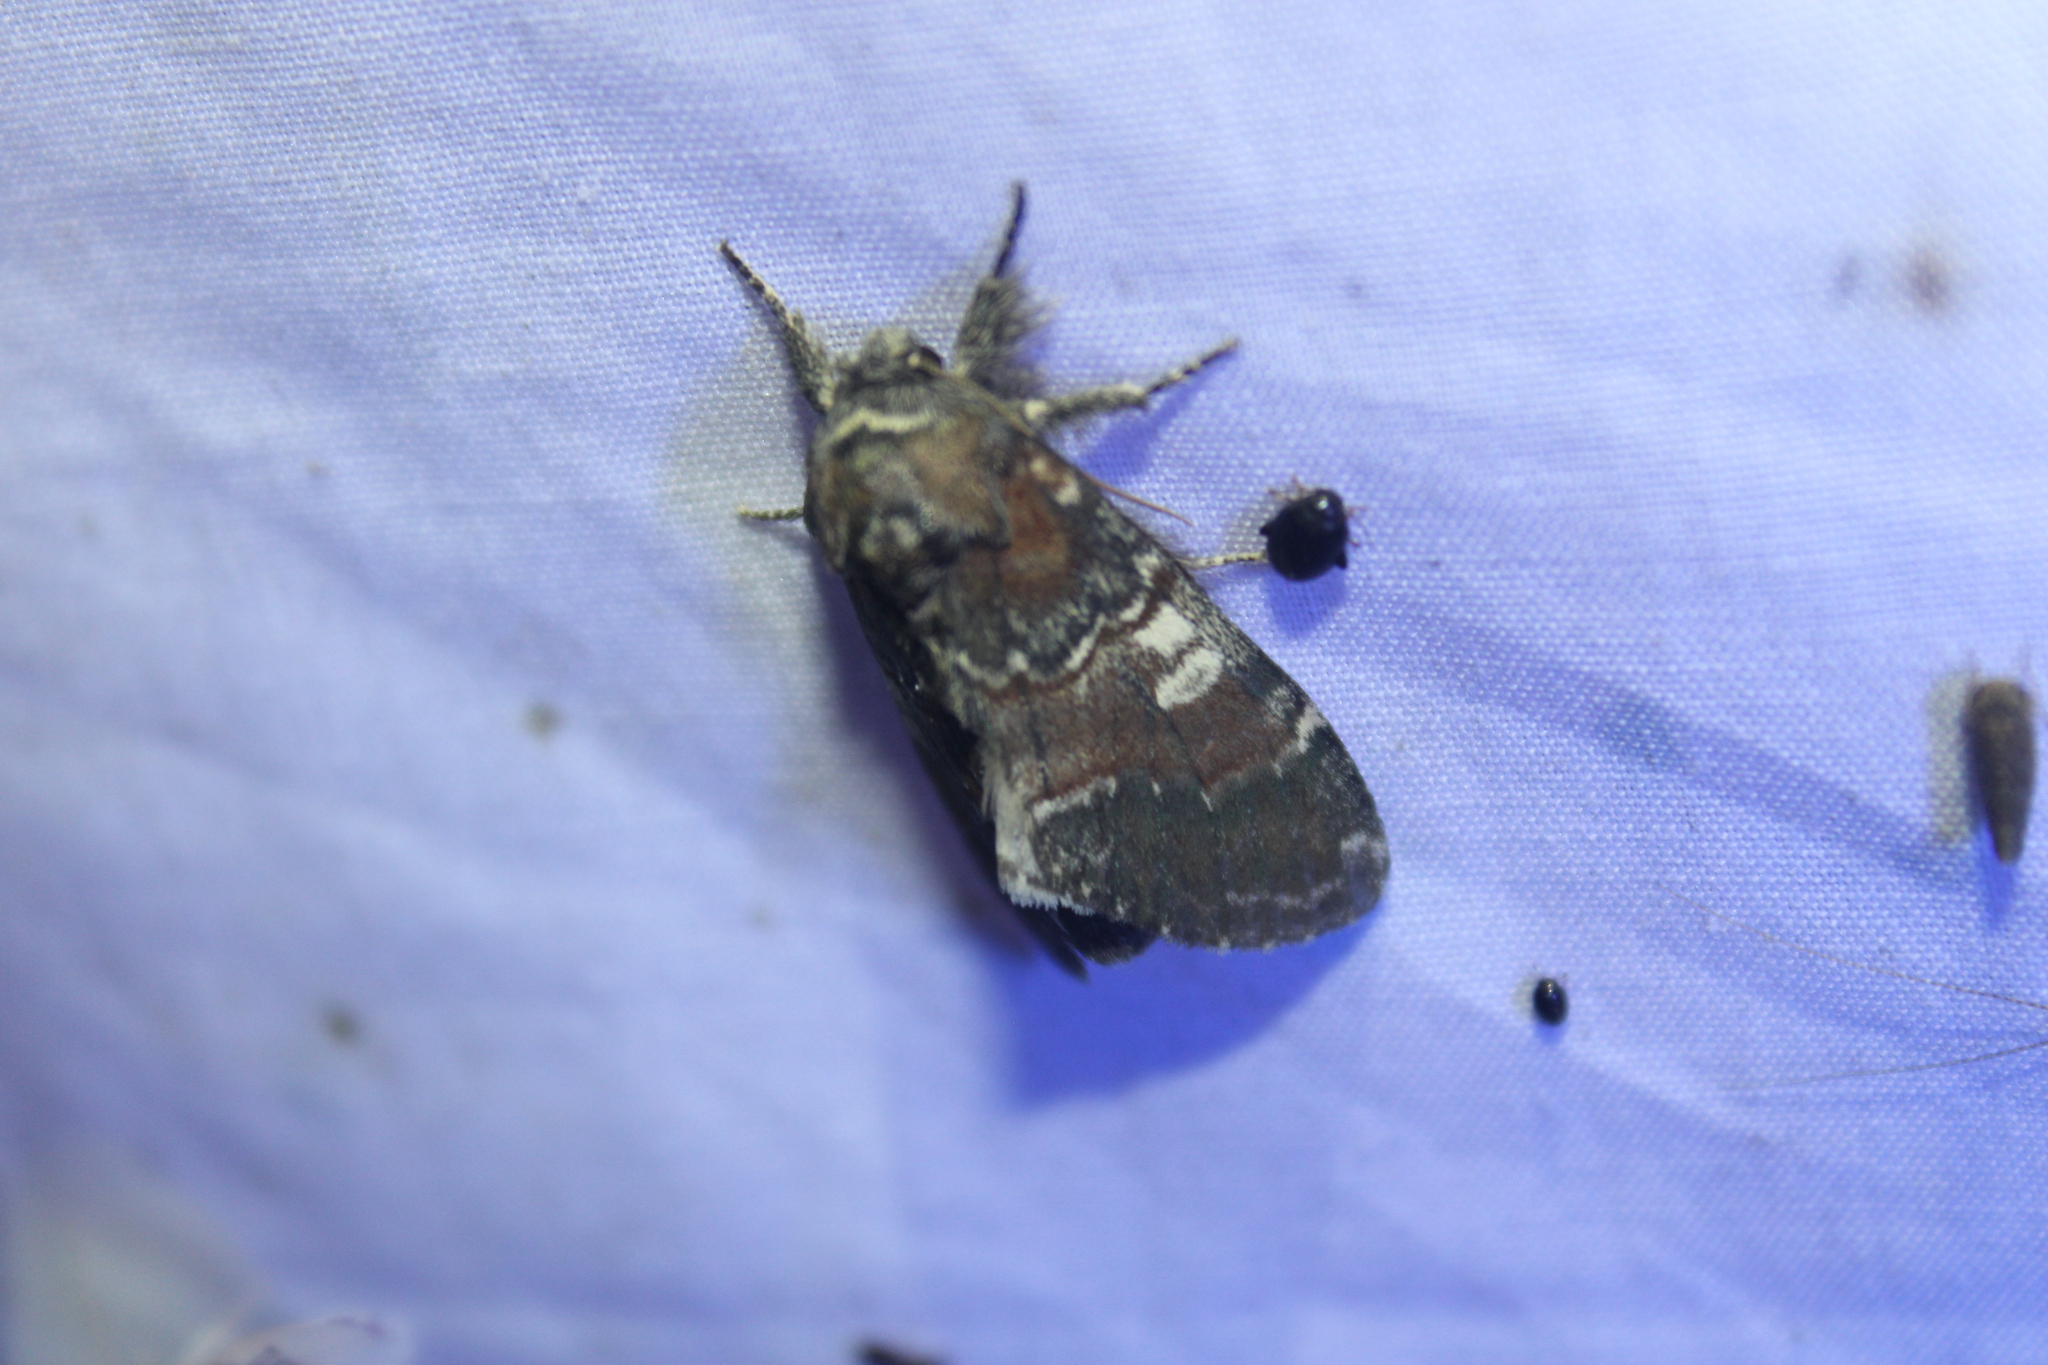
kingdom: Animalia
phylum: Arthropoda
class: Insecta
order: Lepidoptera
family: Notodontidae
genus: Peridea
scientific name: Peridea ferruginea
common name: Chocolate prominent
